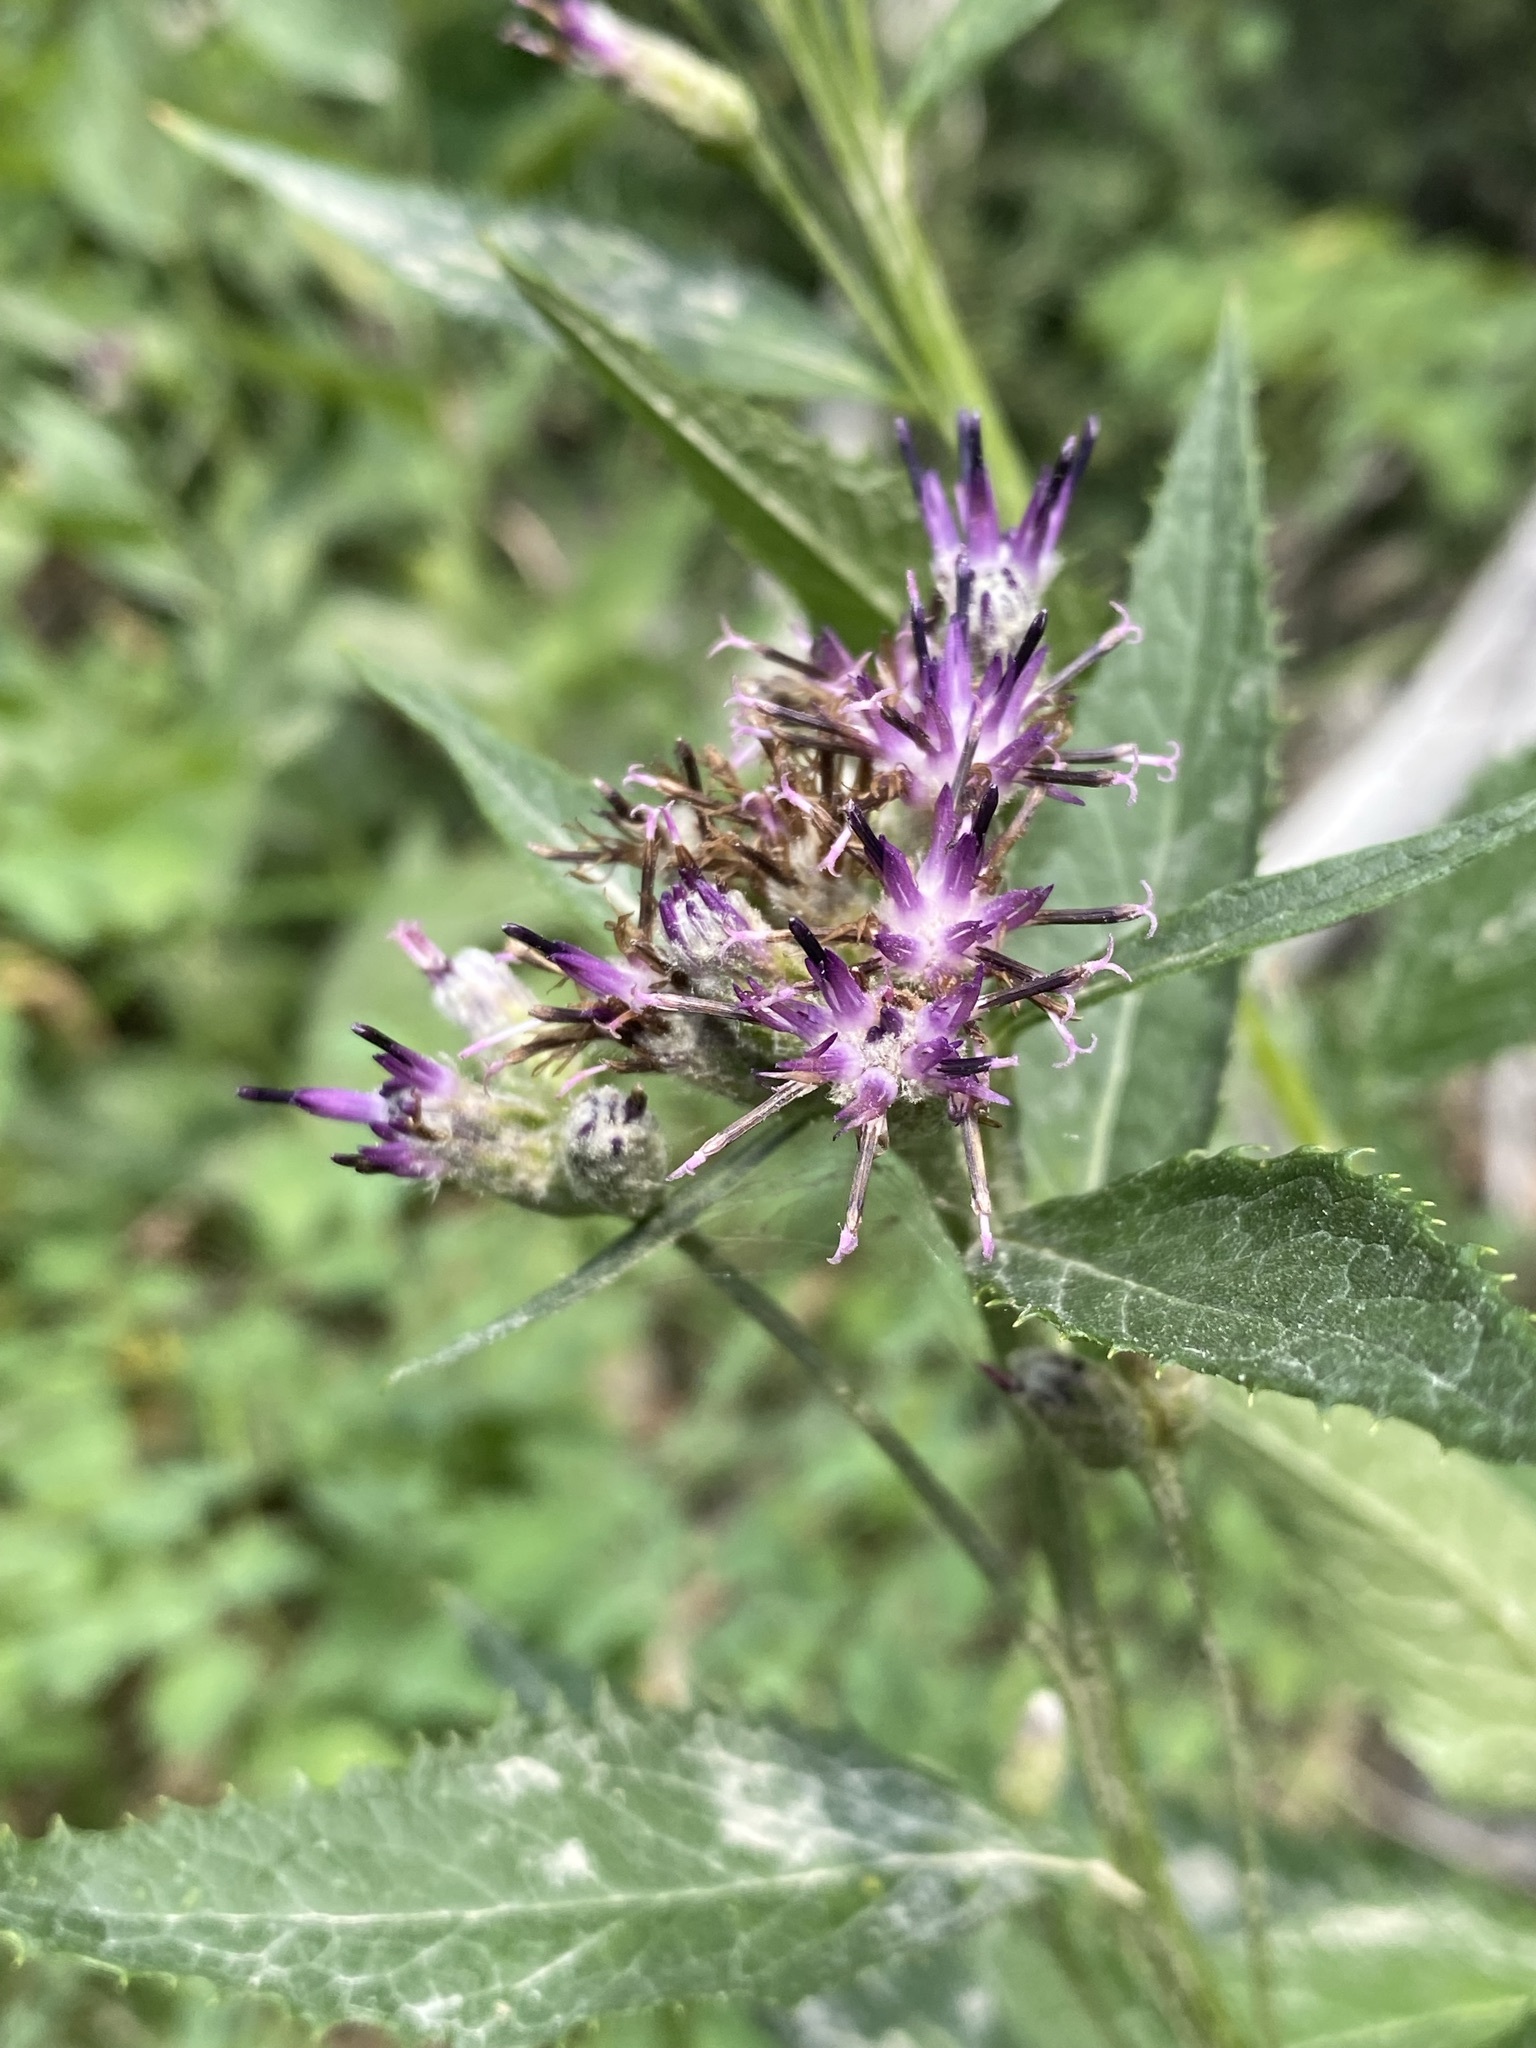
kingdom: Plantae
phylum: Tracheophyta
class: Magnoliopsida
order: Asterales
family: Asteraceae
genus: Saussurea
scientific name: Saussurea americana
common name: American saw-wort
